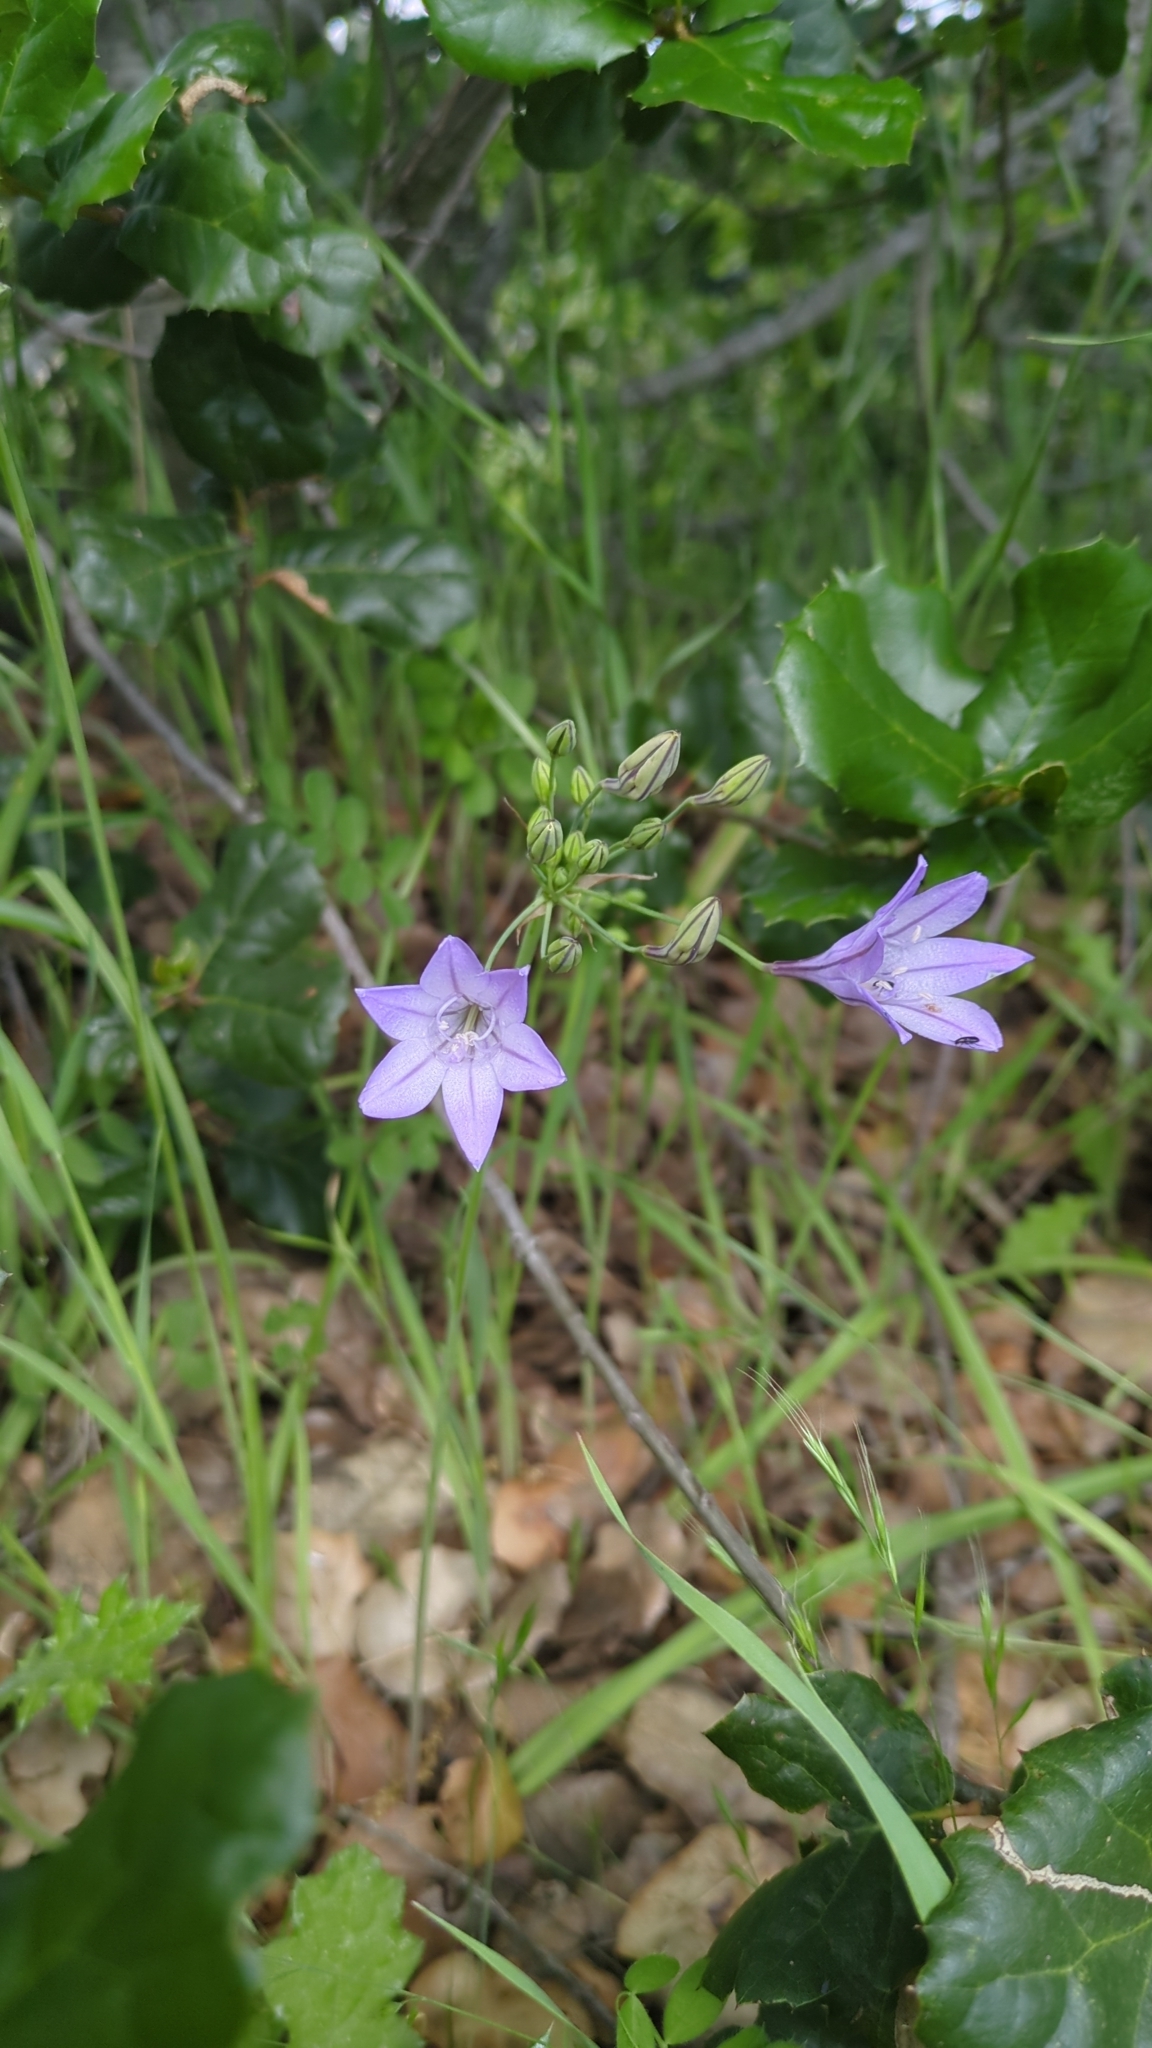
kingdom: Plantae
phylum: Tracheophyta
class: Liliopsida
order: Asparagales
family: Asparagaceae
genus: Triteleia
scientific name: Triteleia laxa
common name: Triplet-lily
